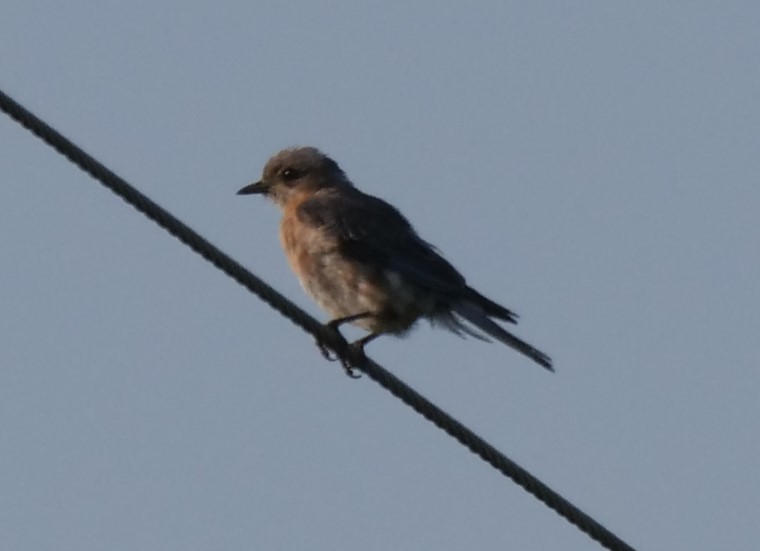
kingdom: Animalia
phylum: Chordata
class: Aves
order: Passeriformes
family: Turdidae
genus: Sialia
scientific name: Sialia sialis
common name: Eastern bluebird
